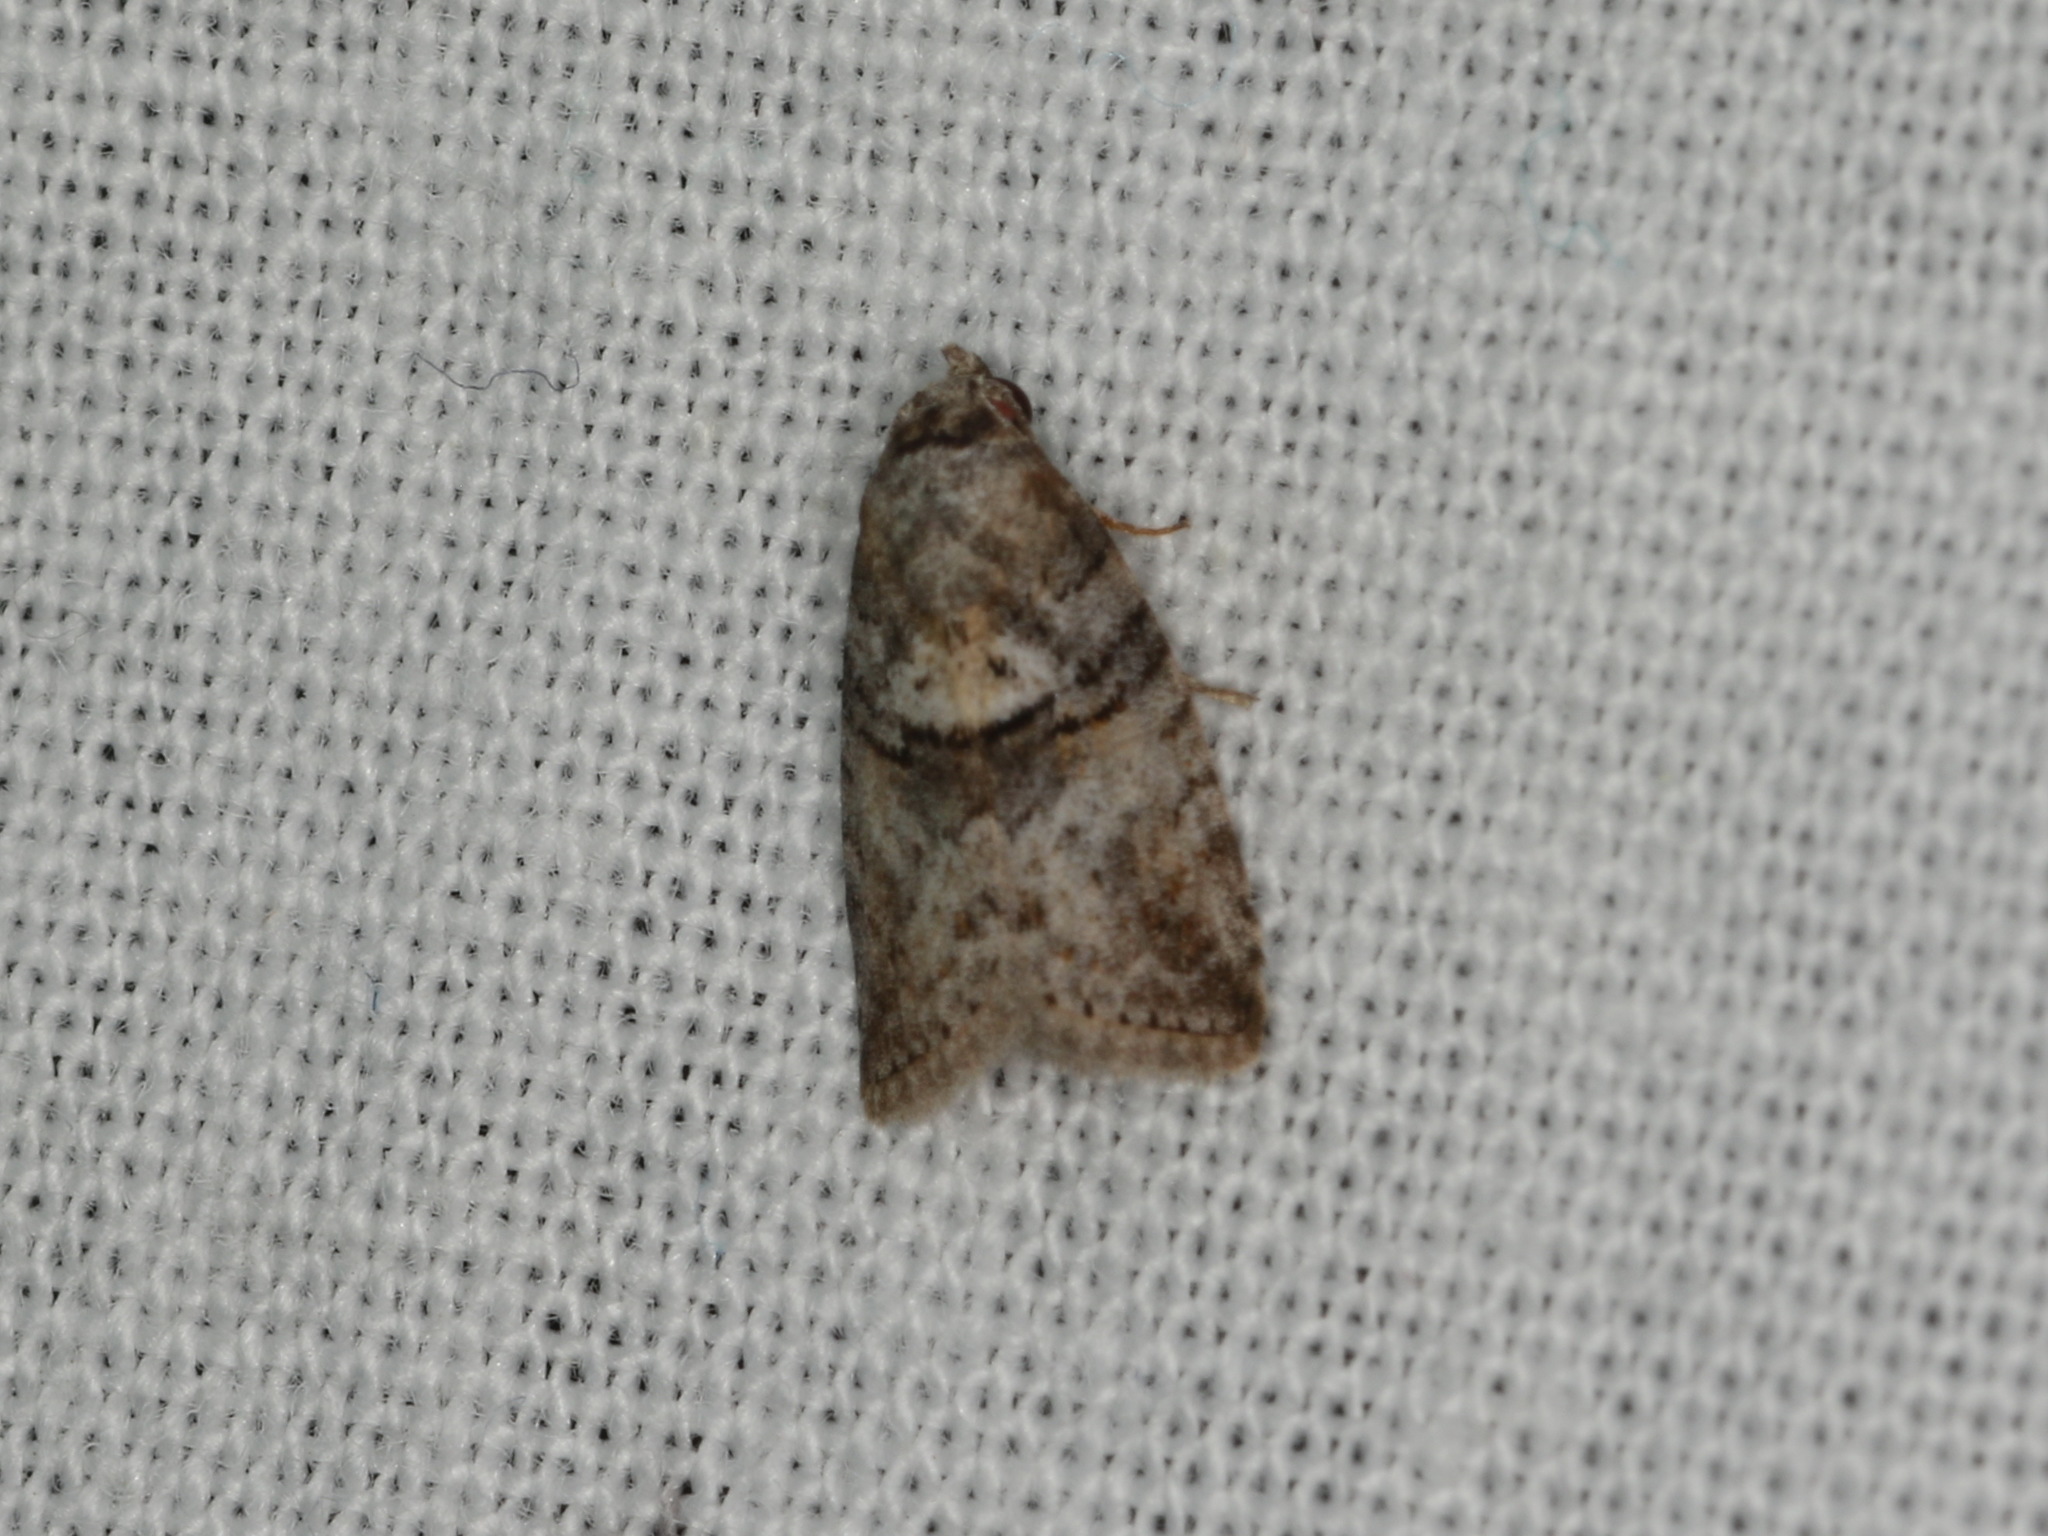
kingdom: Animalia
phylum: Arthropoda
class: Insecta
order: Lepidoptera
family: Nolidae
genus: Microthripa
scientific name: Microthripa baeota
